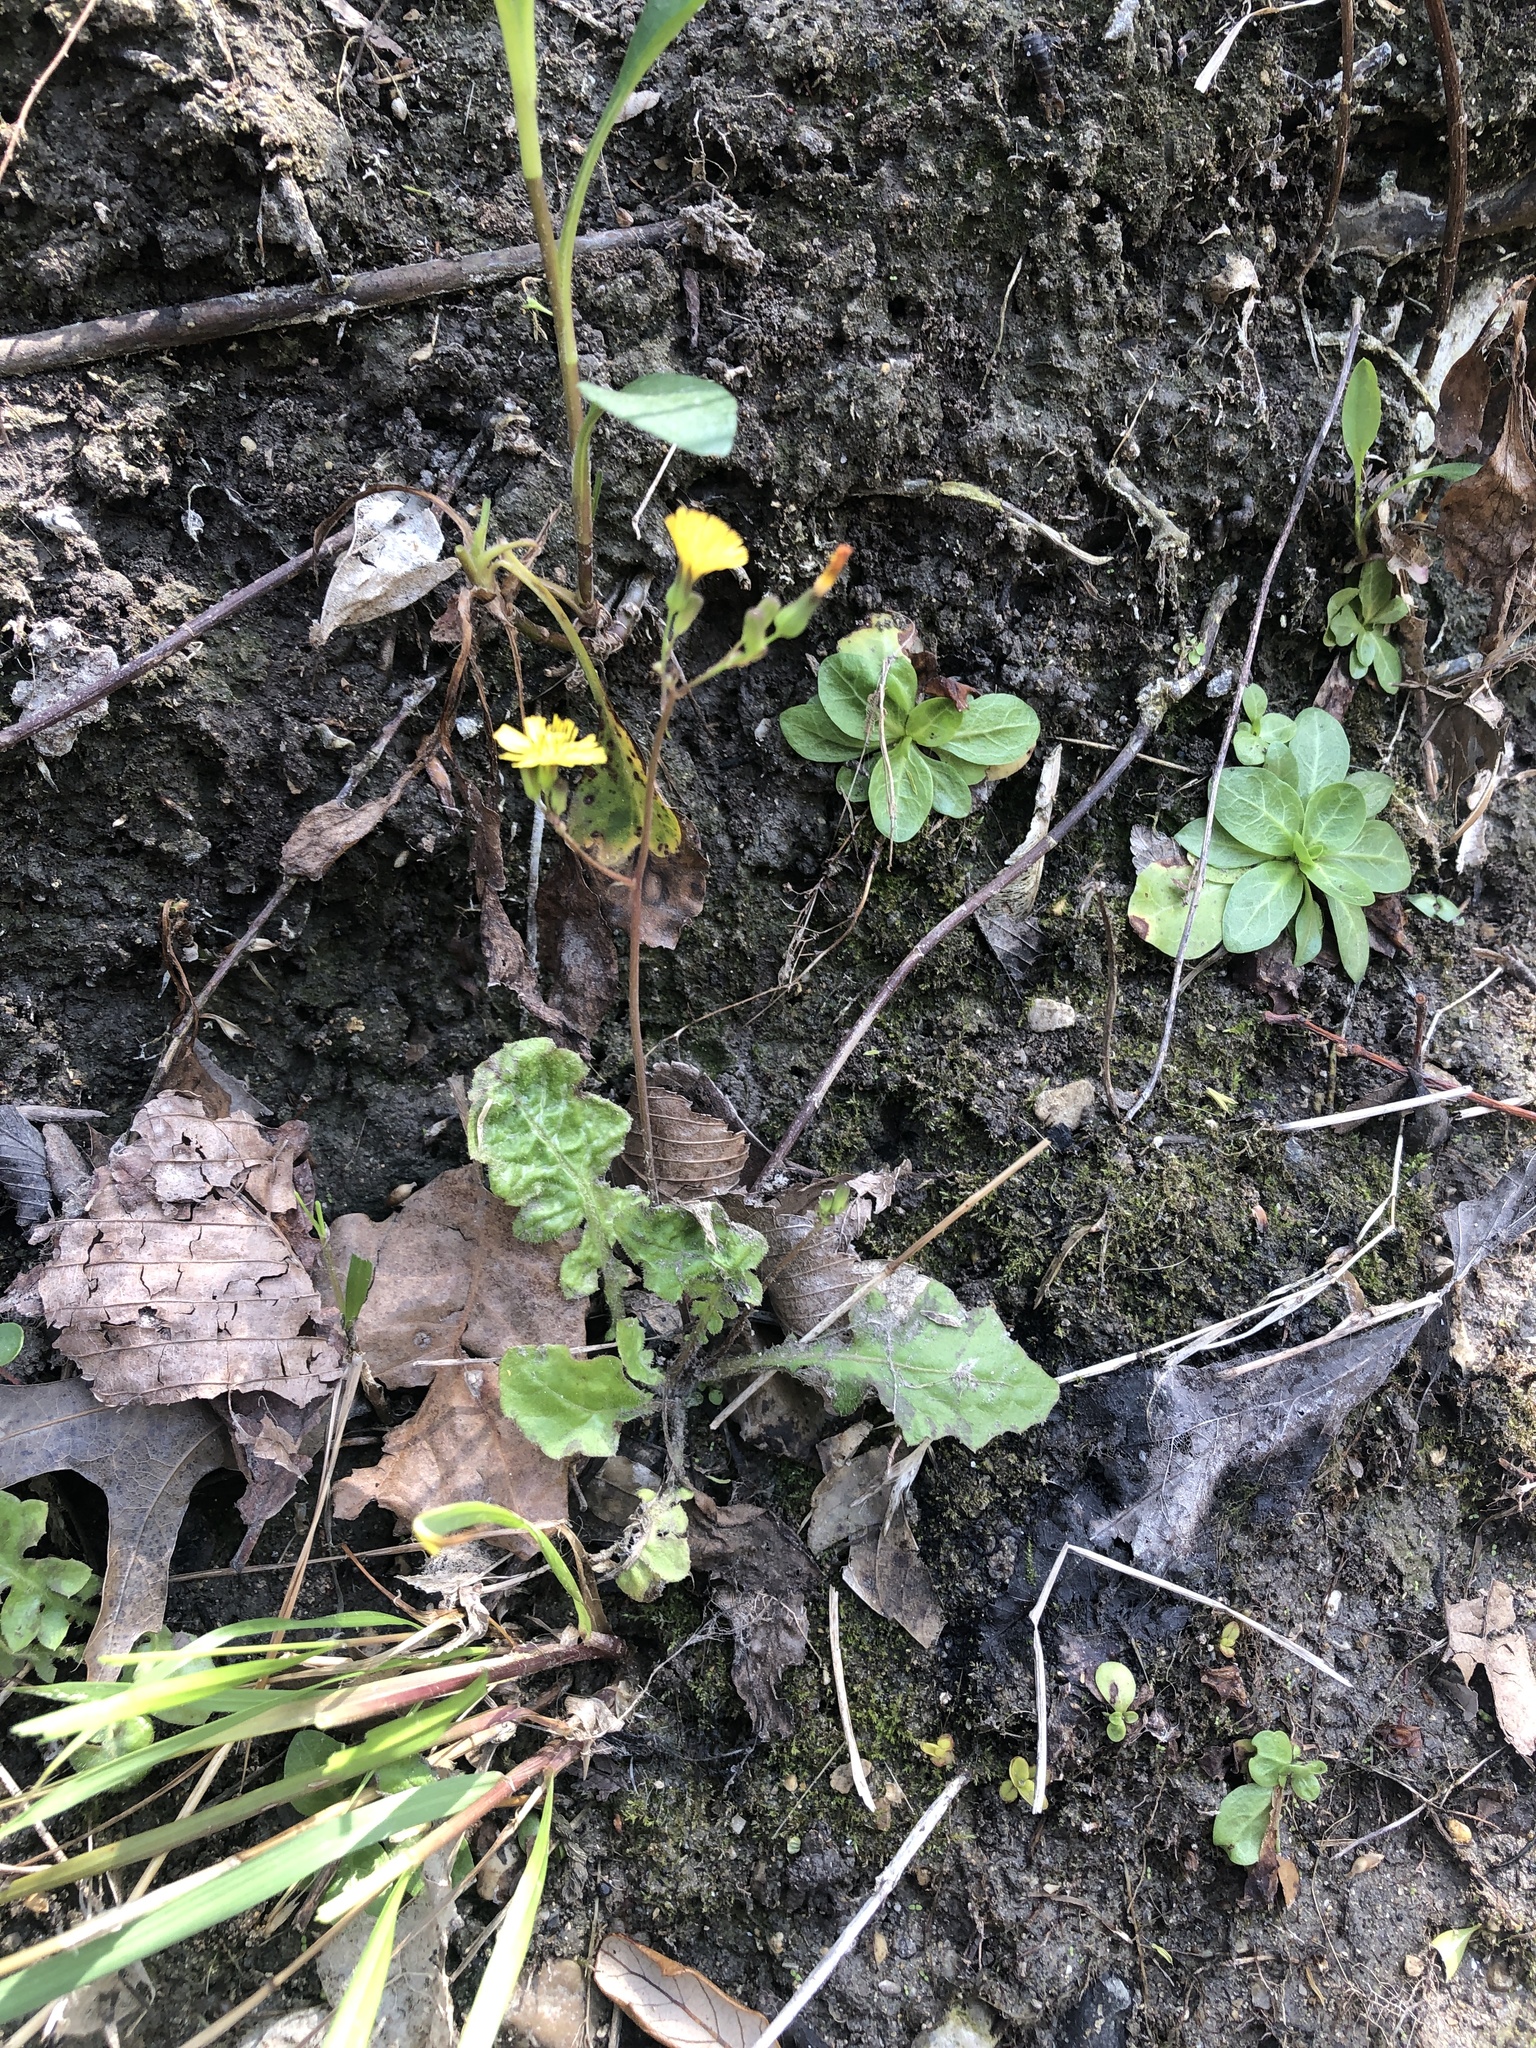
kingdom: Plantae
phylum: Tracheophyta
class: Magnoliopsida
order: Asterales
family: Asteraceae
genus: Youngia
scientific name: Youngia japonica
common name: Oriental false hawksbeard
